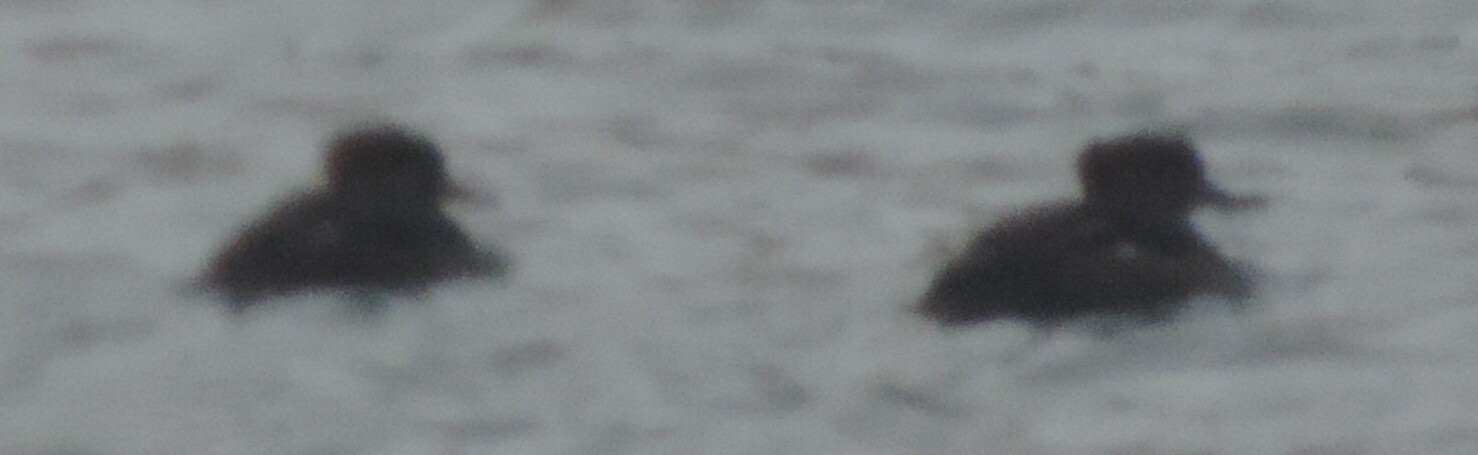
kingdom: Animalia
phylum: Chordata
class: Aves
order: Anseriformes
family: Anatidae
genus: Lophodytes
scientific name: Lophodytes cucullatus
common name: Hooded merganser
